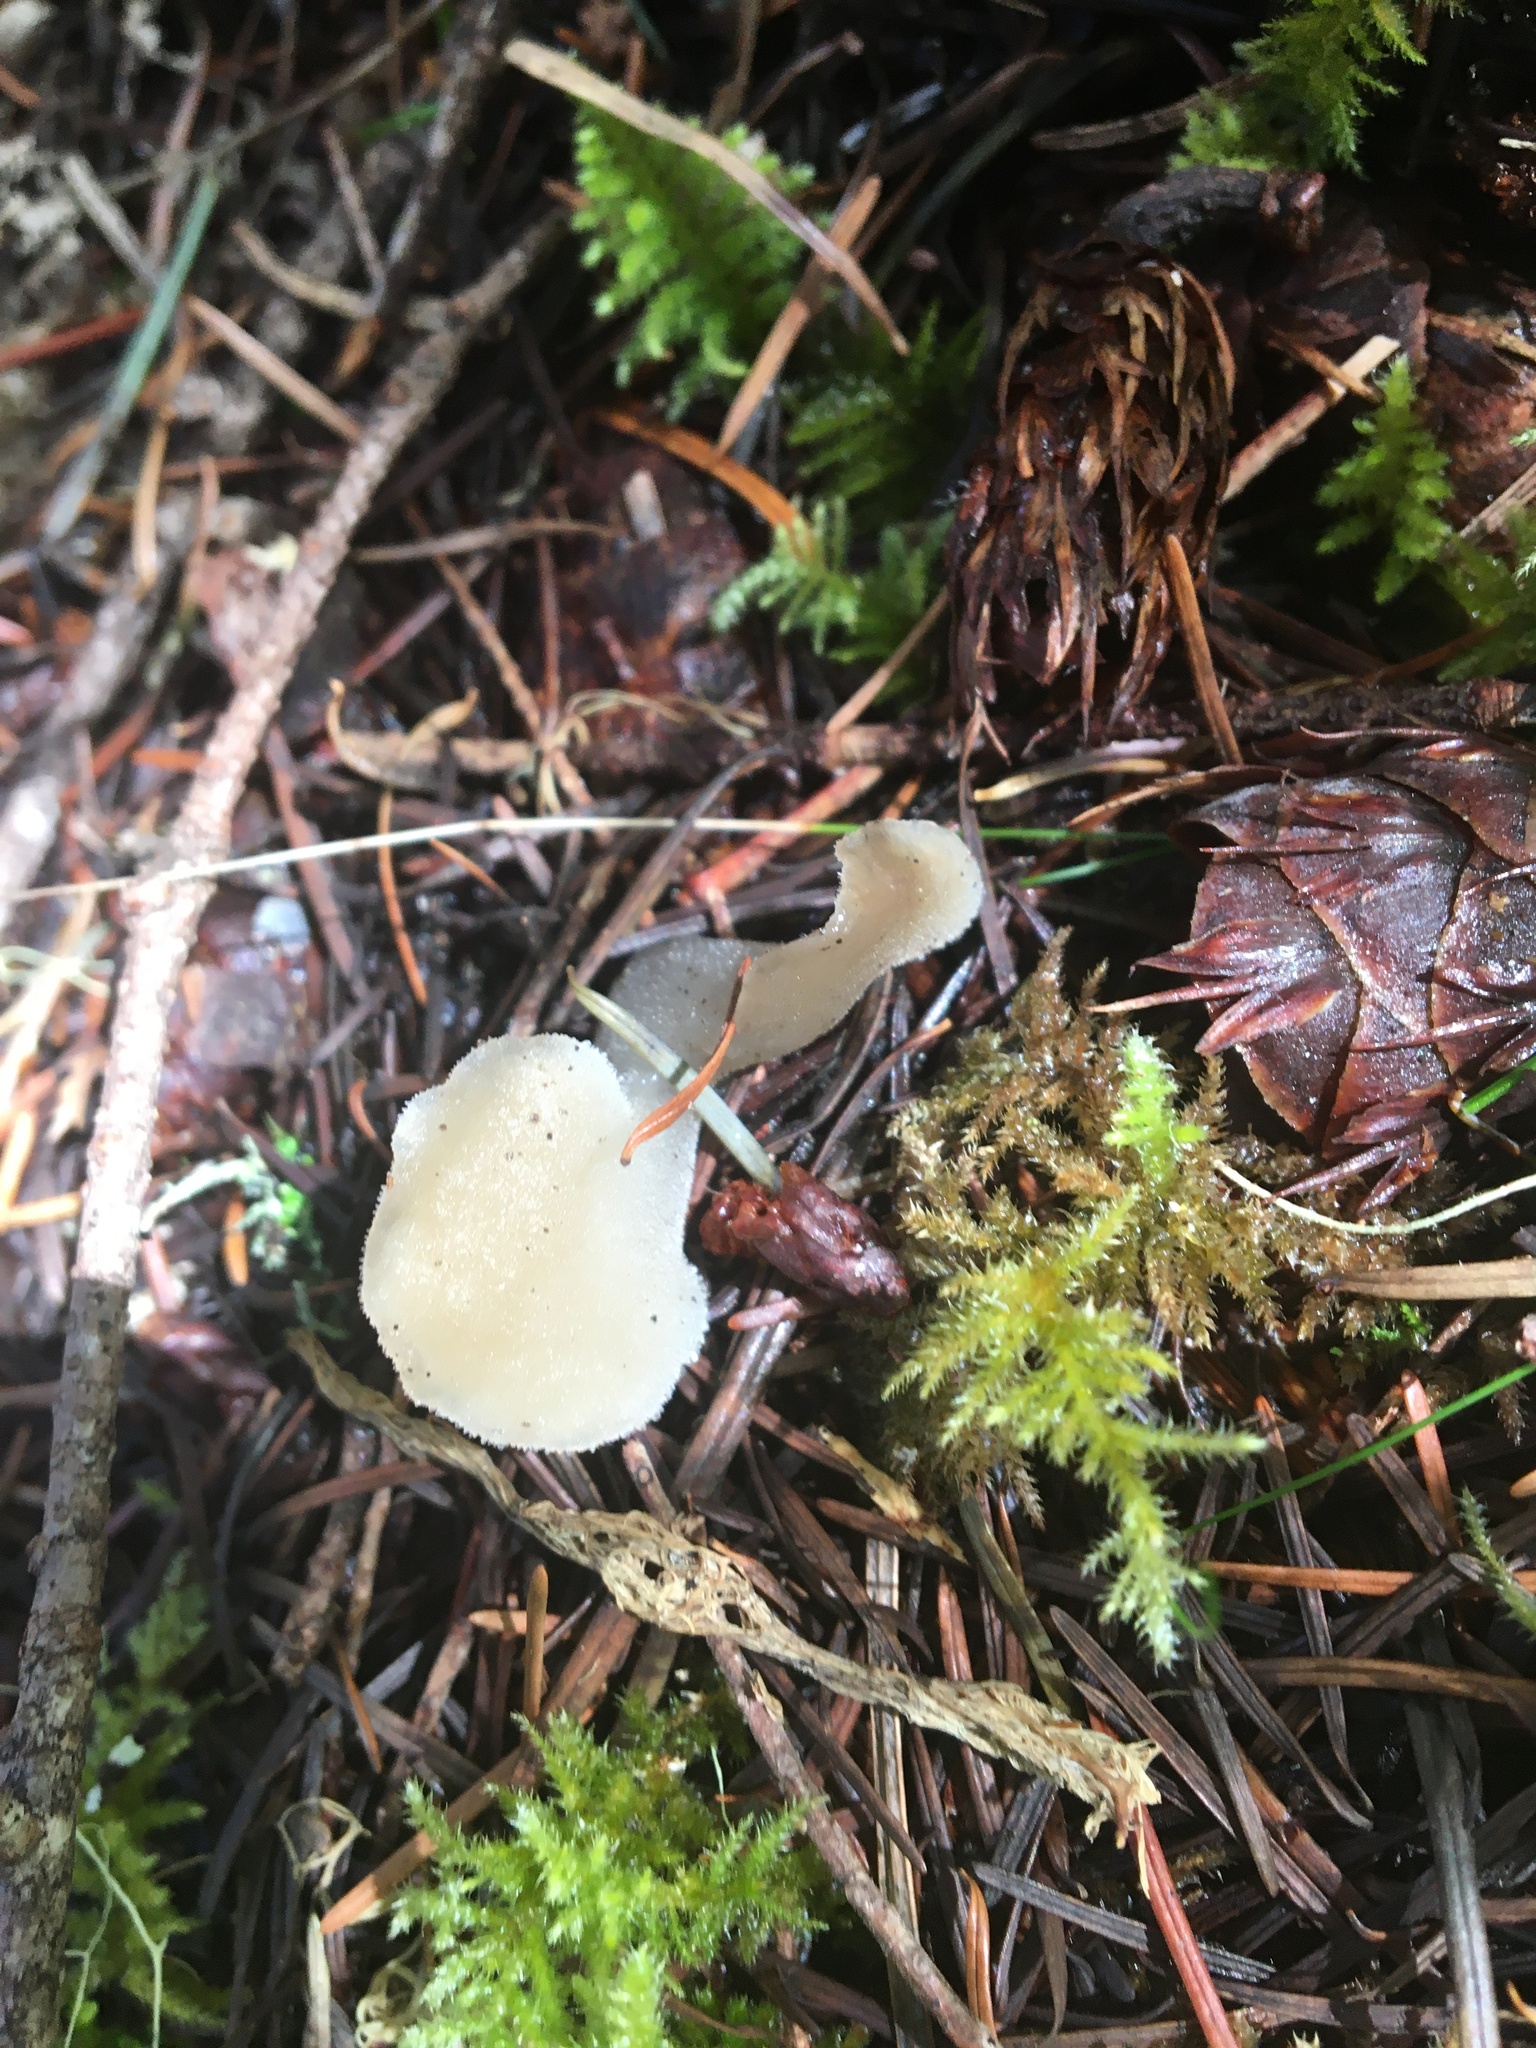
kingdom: Fungi
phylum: Basidiomycota
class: Agaricomycetes
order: Auriculariales
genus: Pseudohydnum
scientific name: Pseudohydnum gelatinosum
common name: Jelly tongue
